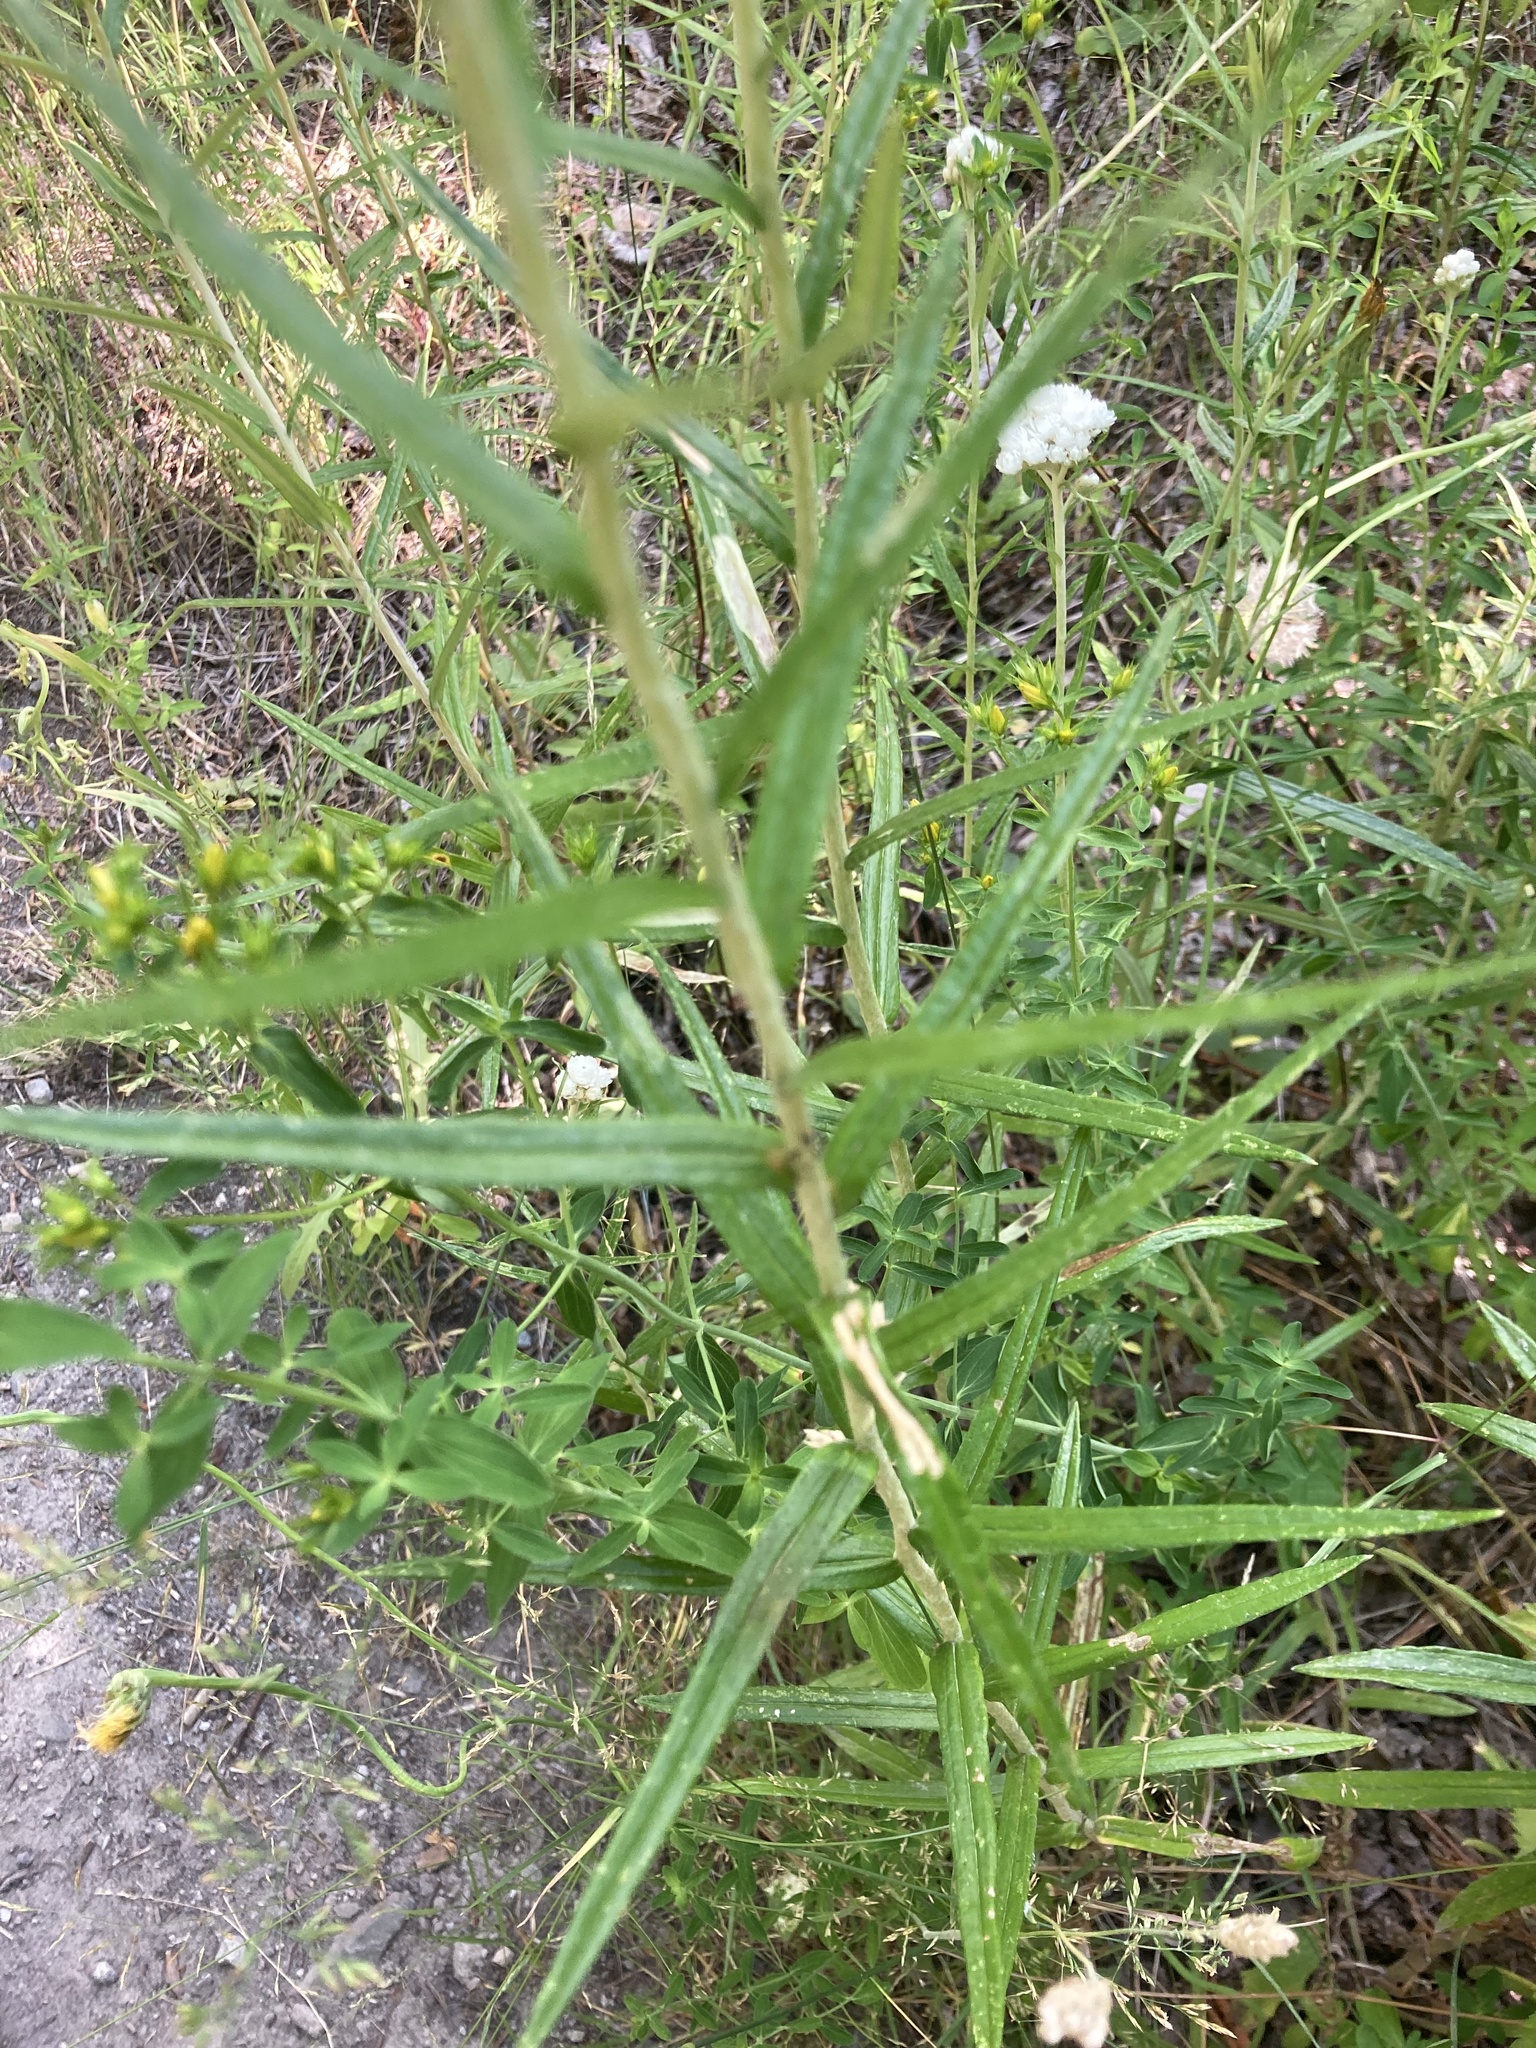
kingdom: Plantae
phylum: Tracheophyta
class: Magnoliopsida
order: Asterales
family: Asteraceae
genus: Anaphalis
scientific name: Anaphalis margaritacea
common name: Pearly everlasting
